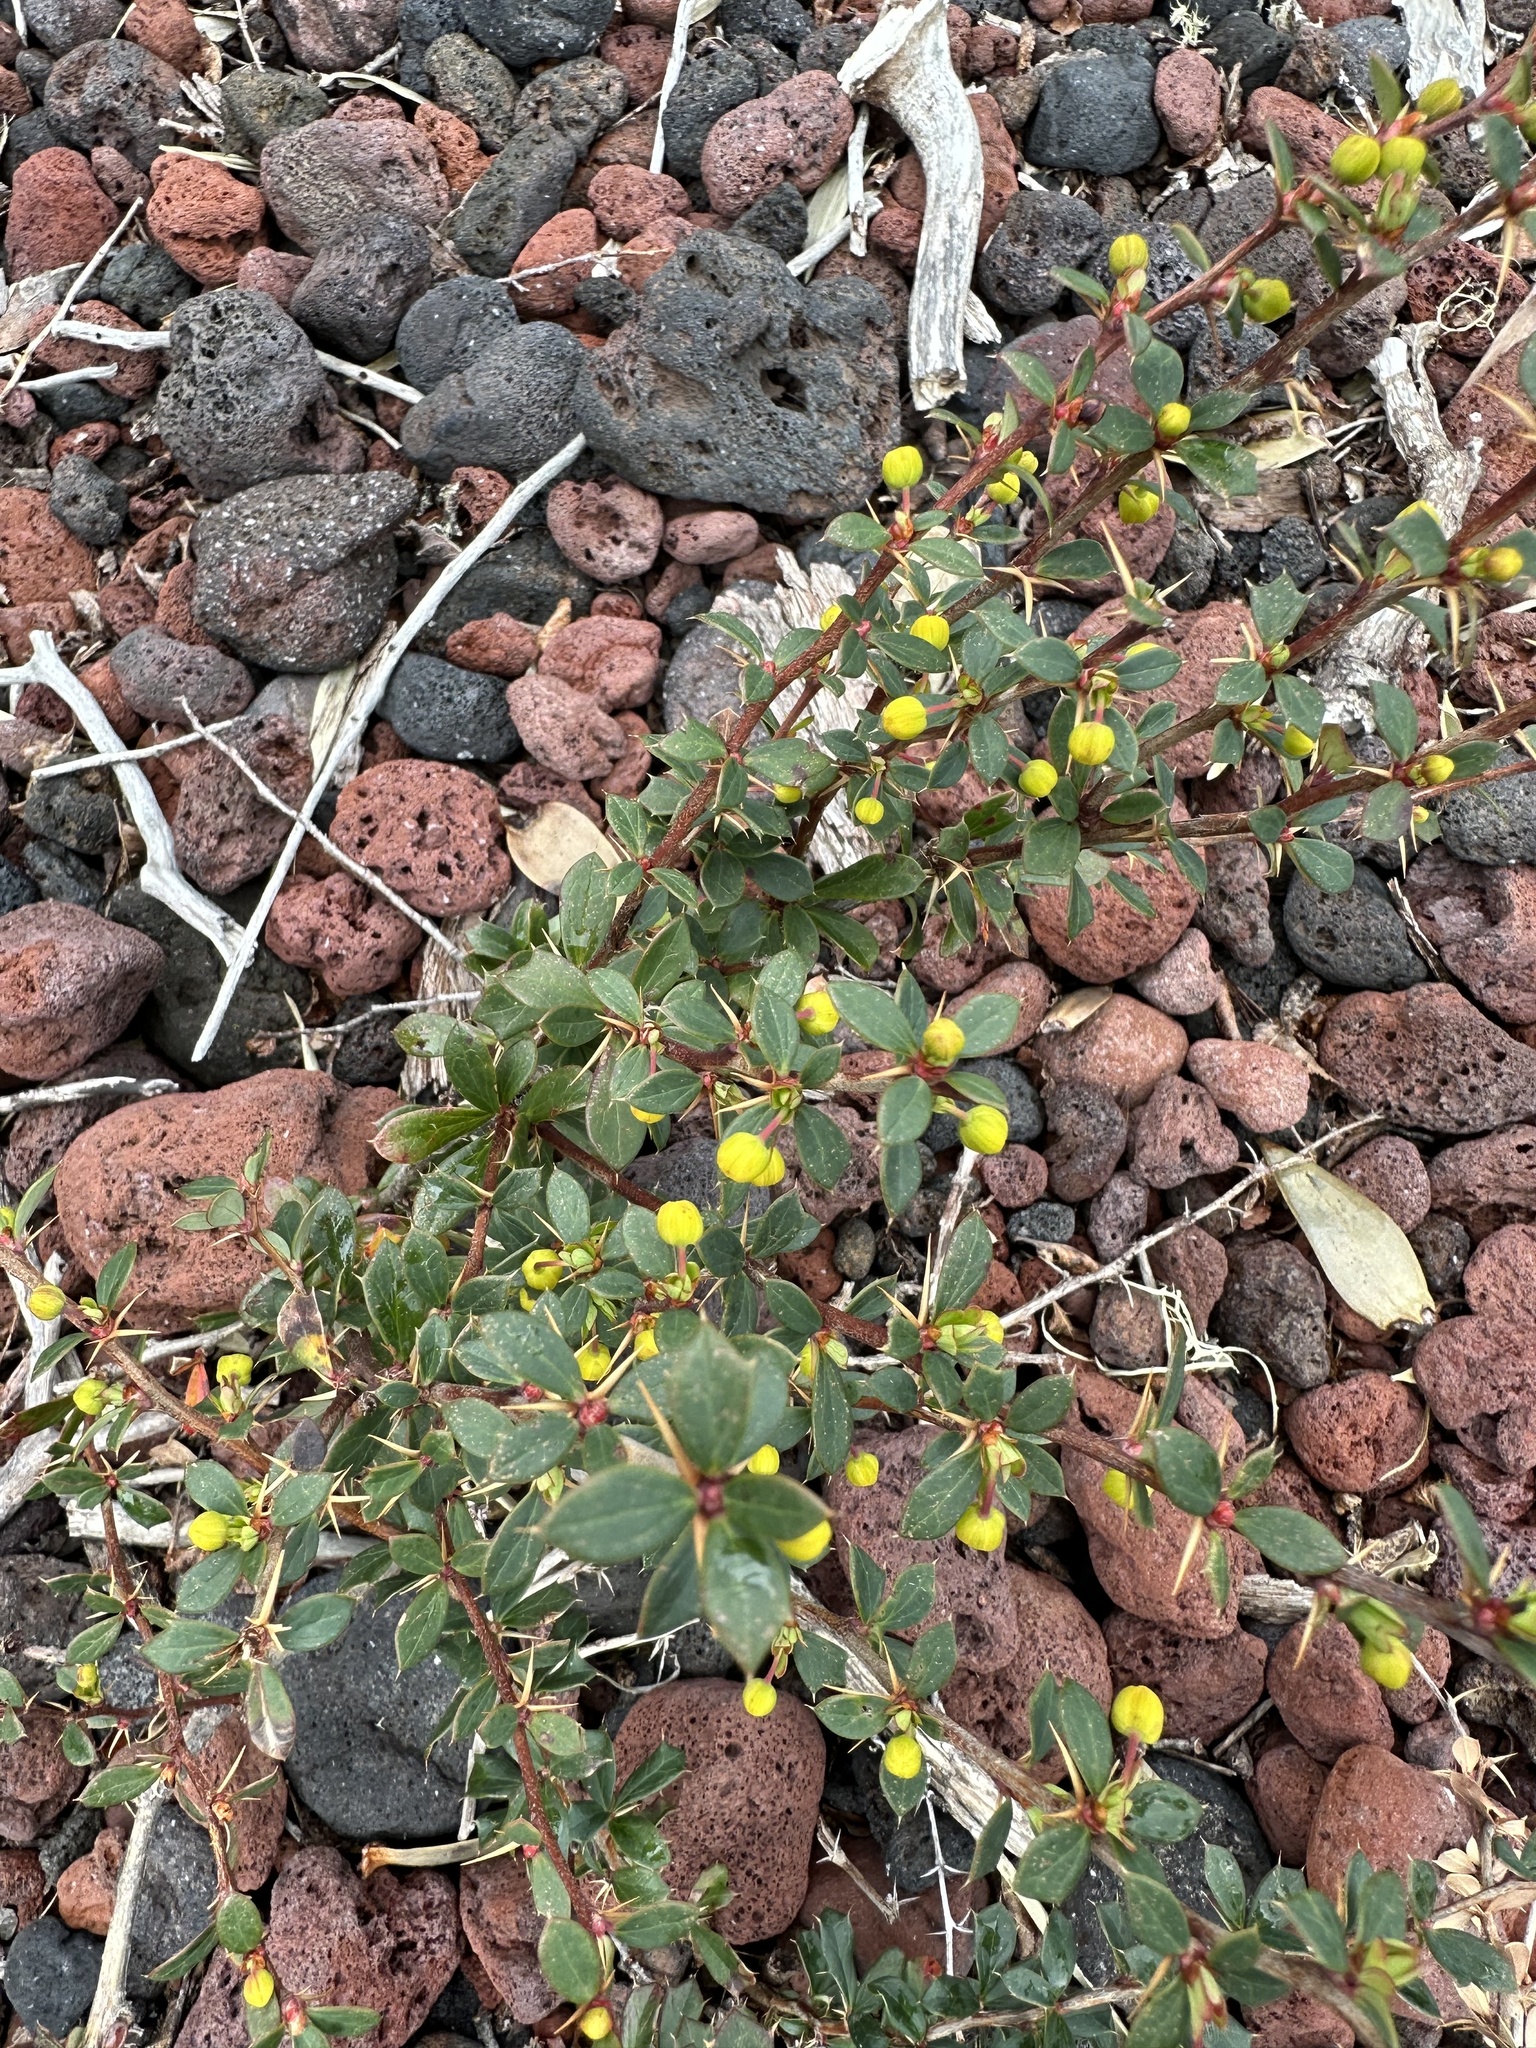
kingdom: Plantae
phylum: Tracheophyta
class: Magnoliopsida
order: Ranunculales
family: Berberidaceae
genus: Berberis
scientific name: Berberis microphylla
